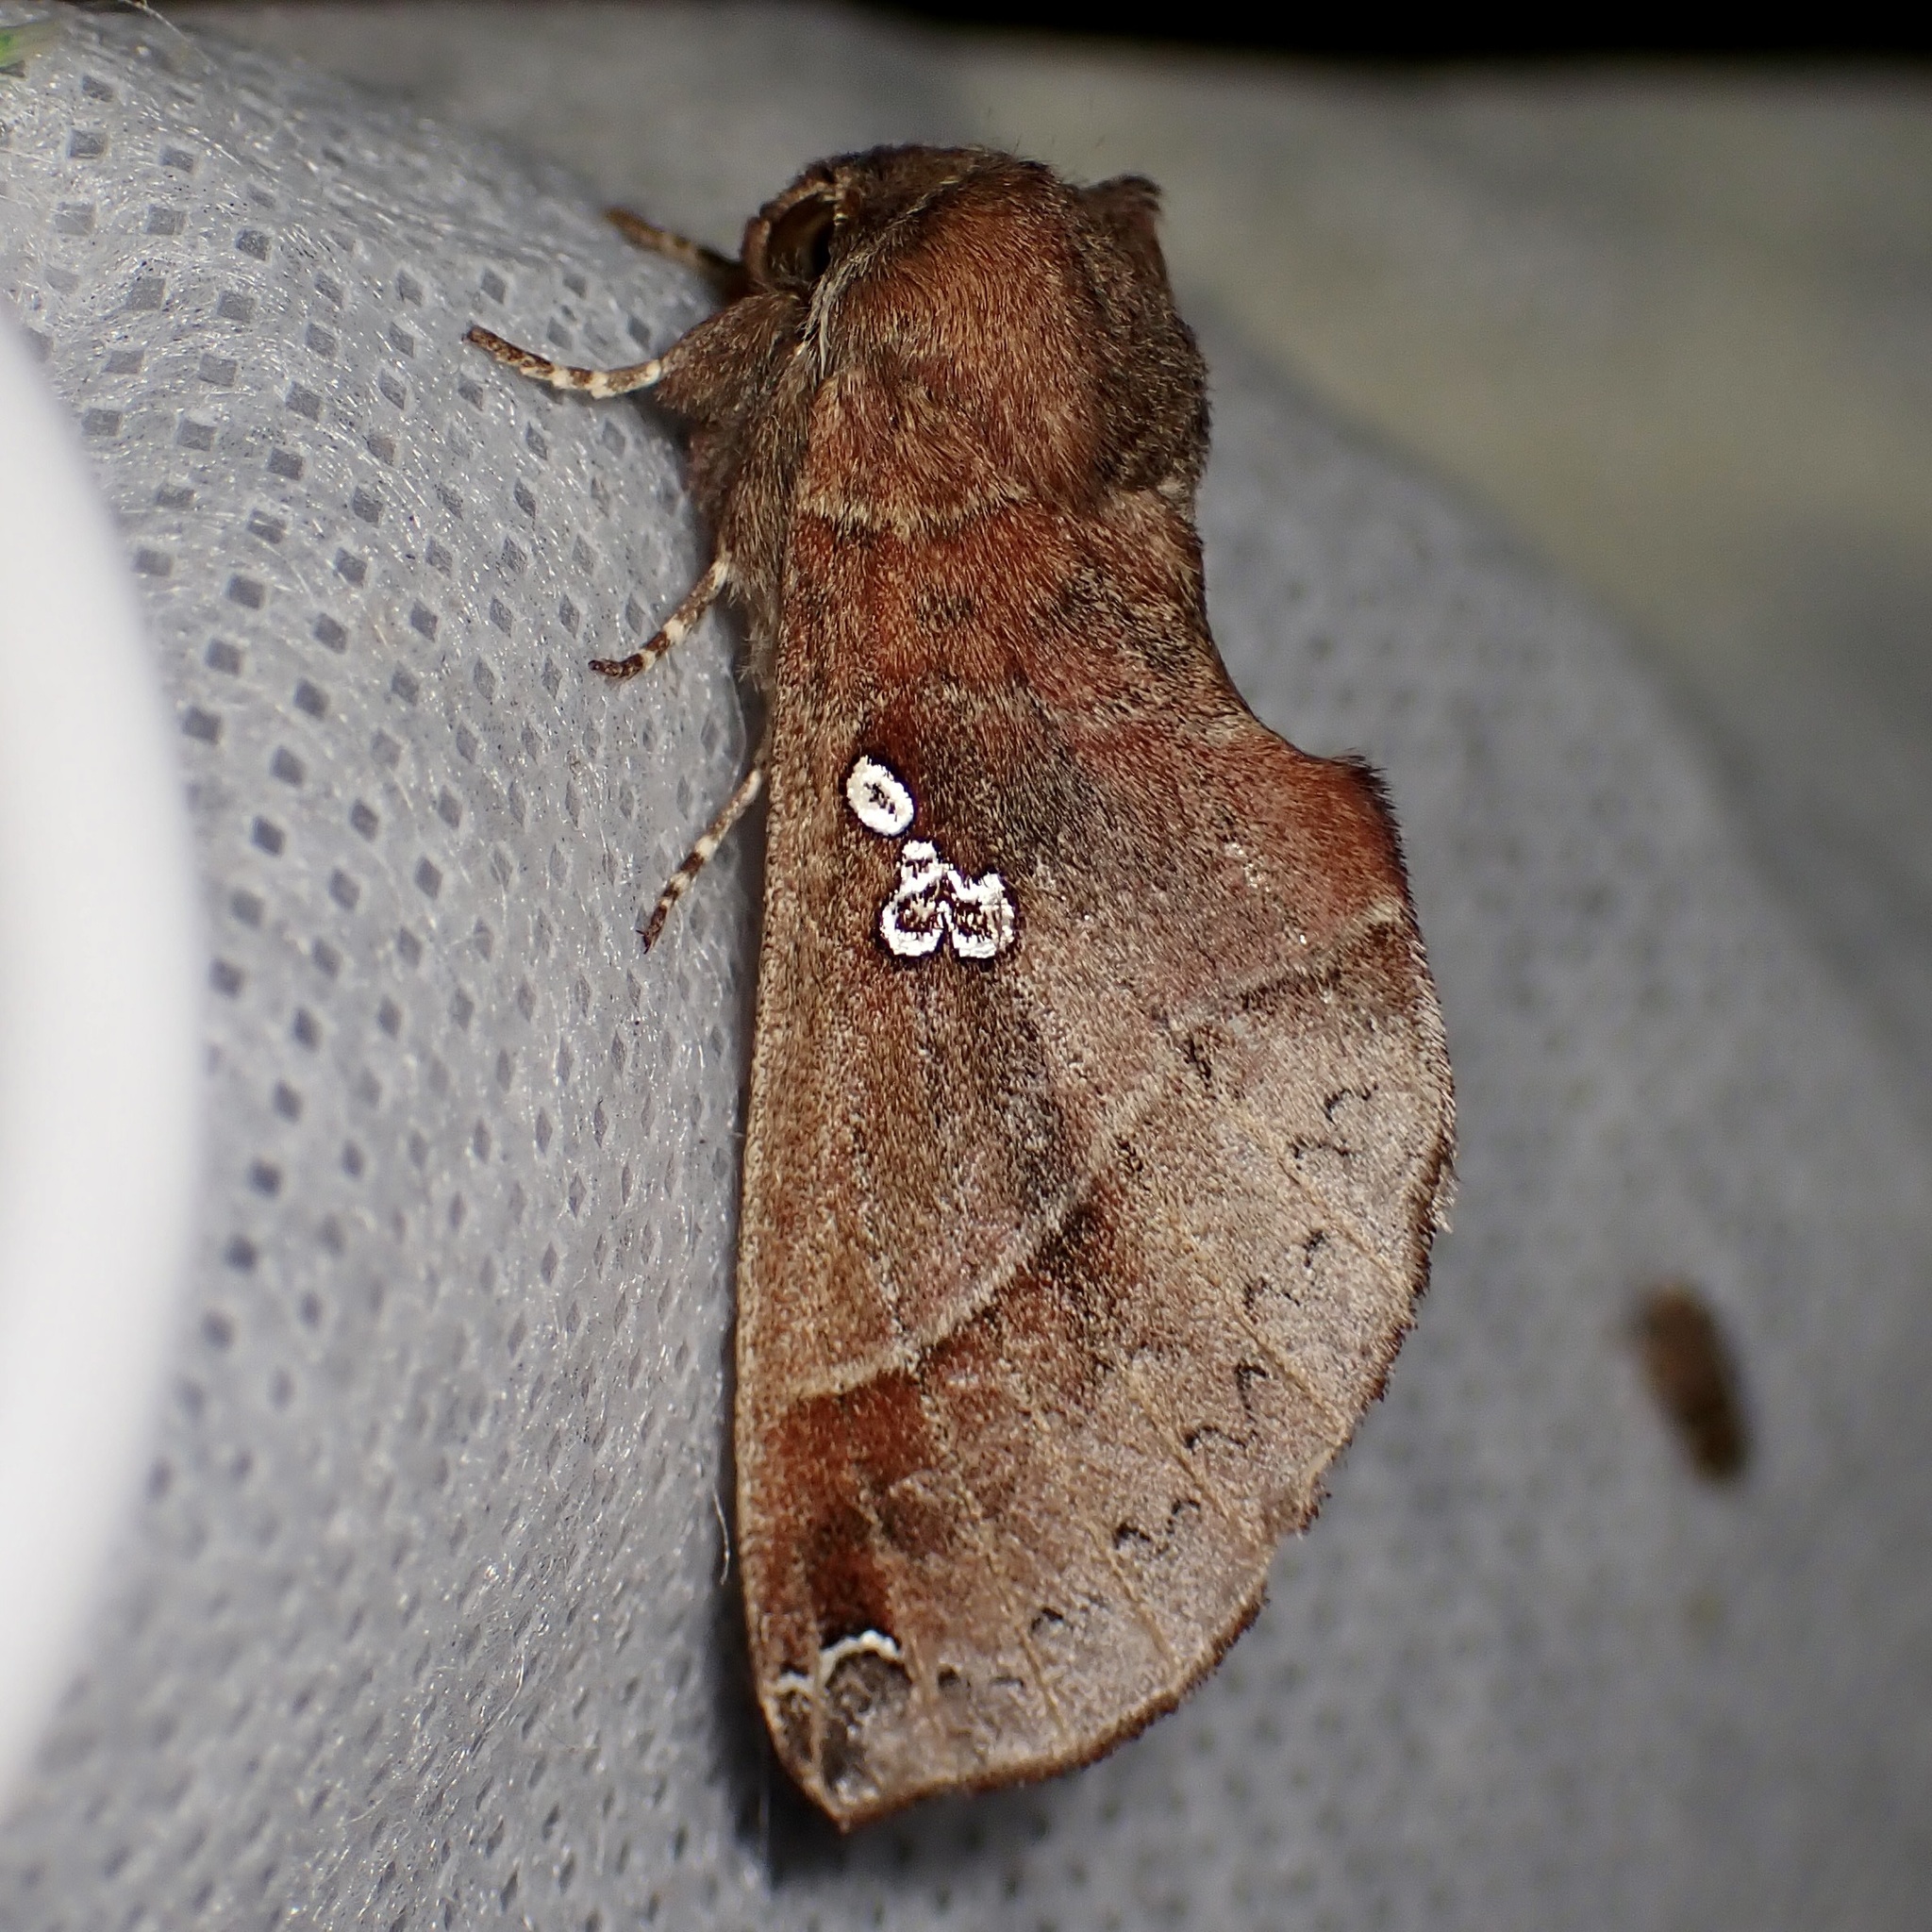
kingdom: Animalia
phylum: Arthropoda
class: Insecta
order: Lepidoptera
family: Notodontidae
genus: Pseudhapigia
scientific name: Pseudhapigia brunnea
